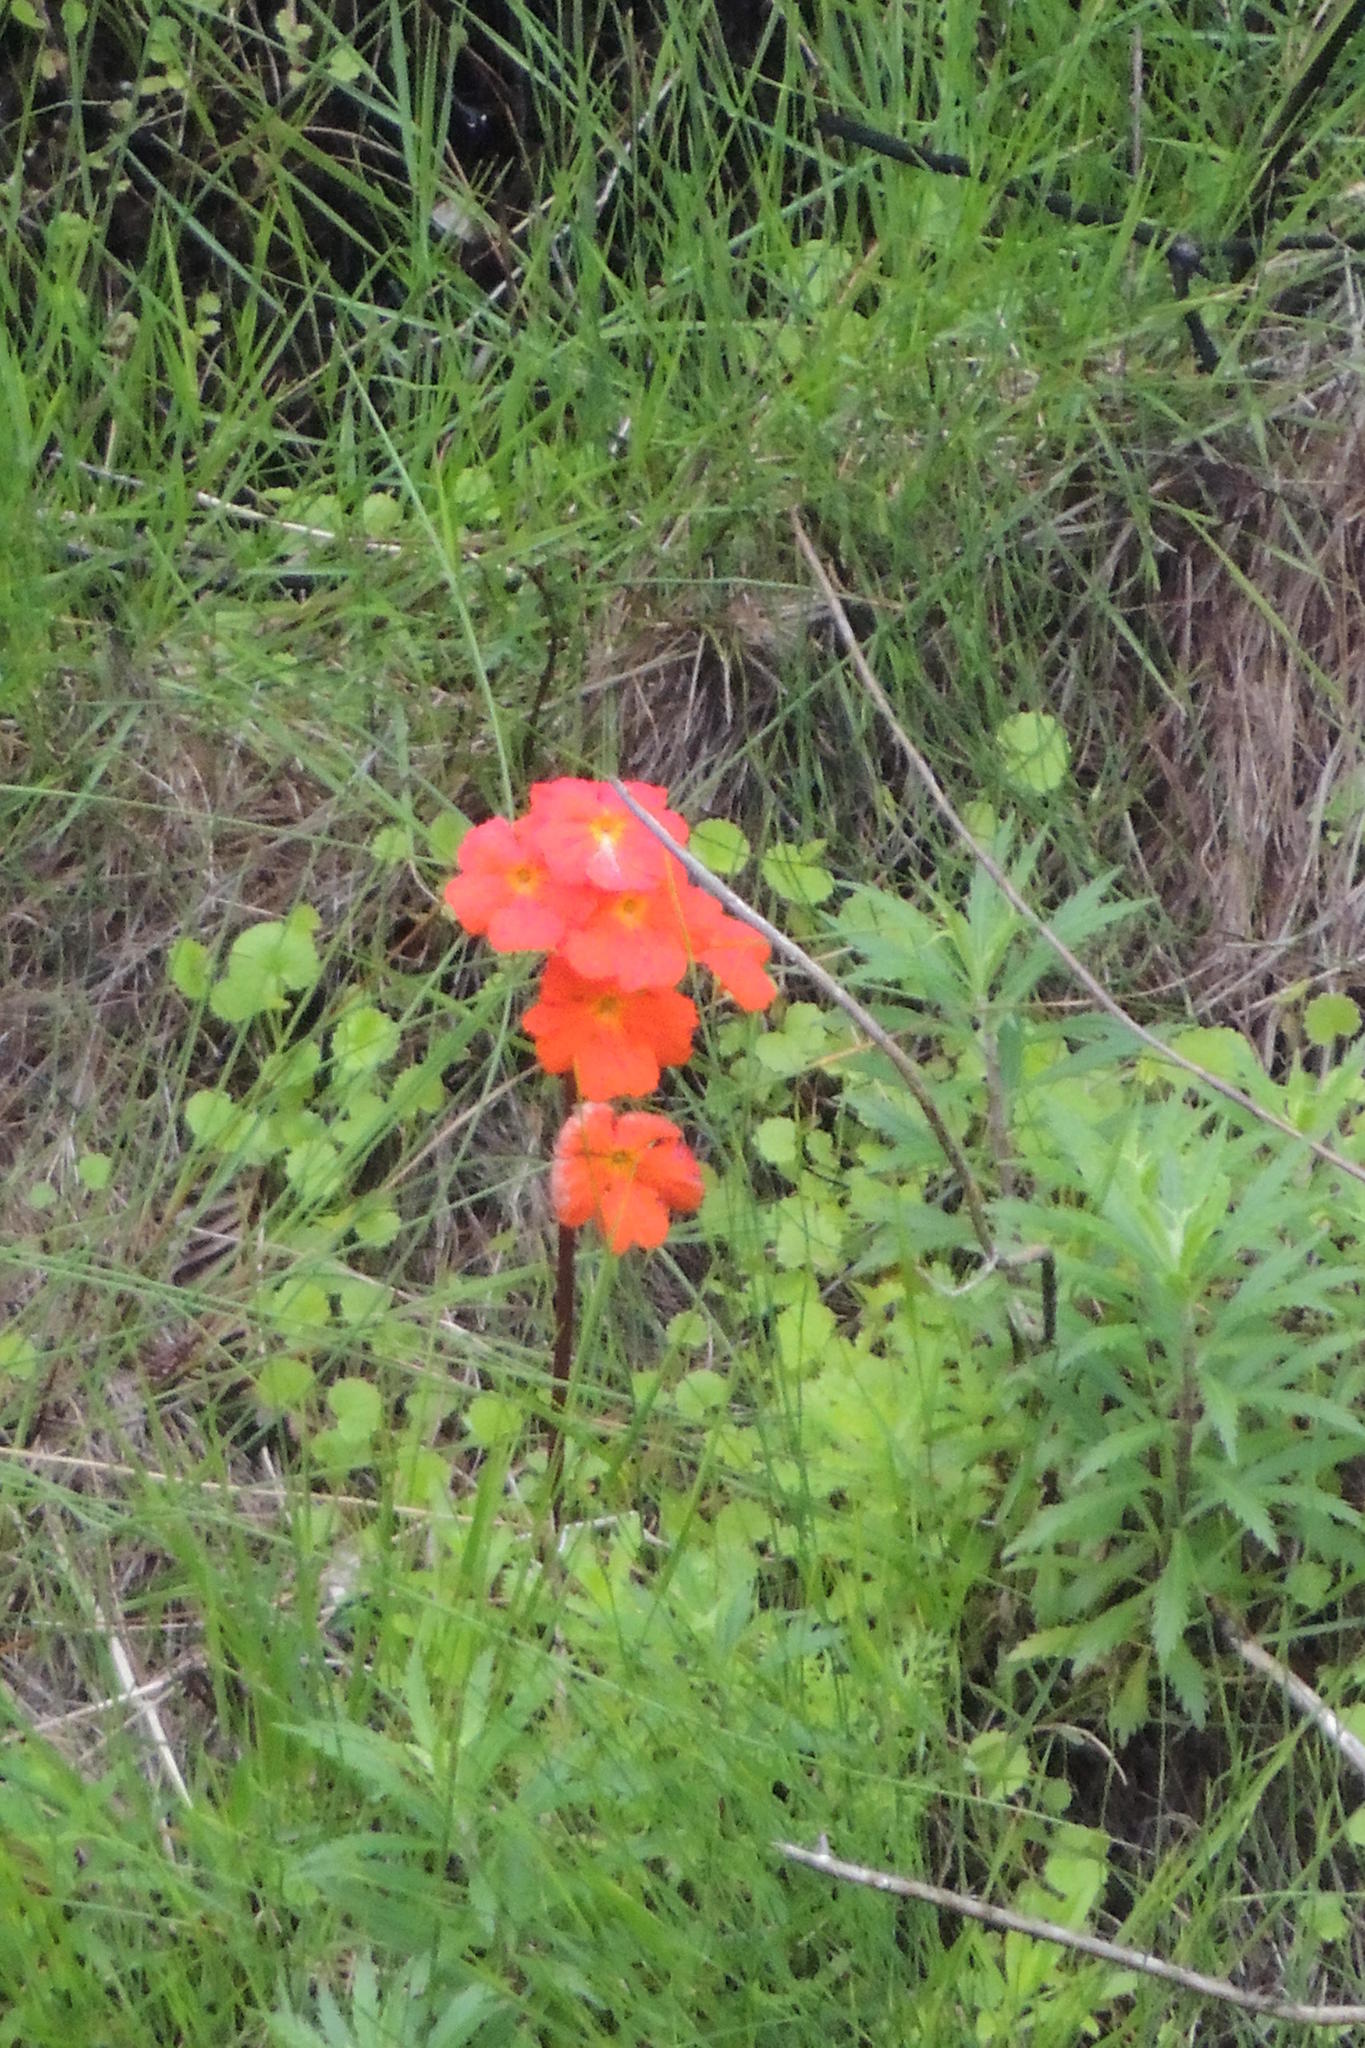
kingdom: Plantae
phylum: Tracheophyta
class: Magnoliopsida
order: Lamiales
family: Orobanchaceae
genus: Harveya
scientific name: Harveya stenosiphon
